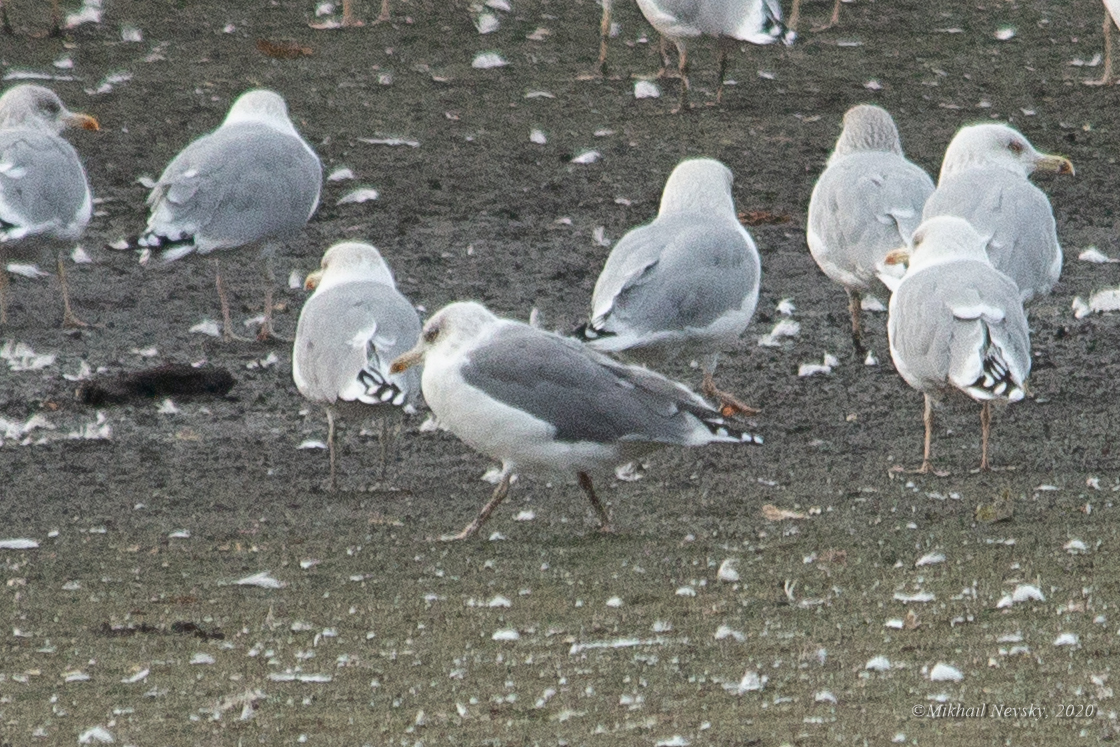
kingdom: Animalia
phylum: Chordata
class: Aves
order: Charadriiformes
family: Laridae
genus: Larus
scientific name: Larus argentatus
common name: Herring gull
